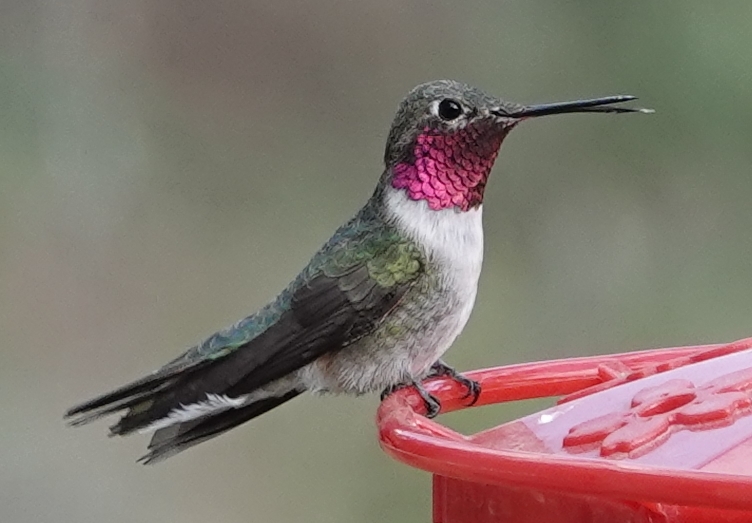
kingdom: Animalia
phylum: Chordata
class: Aves
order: Apodiformes
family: Trochilidae
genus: Selasphorus
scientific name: Selasphorus platycercus
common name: Broad-tailed hummingbird
